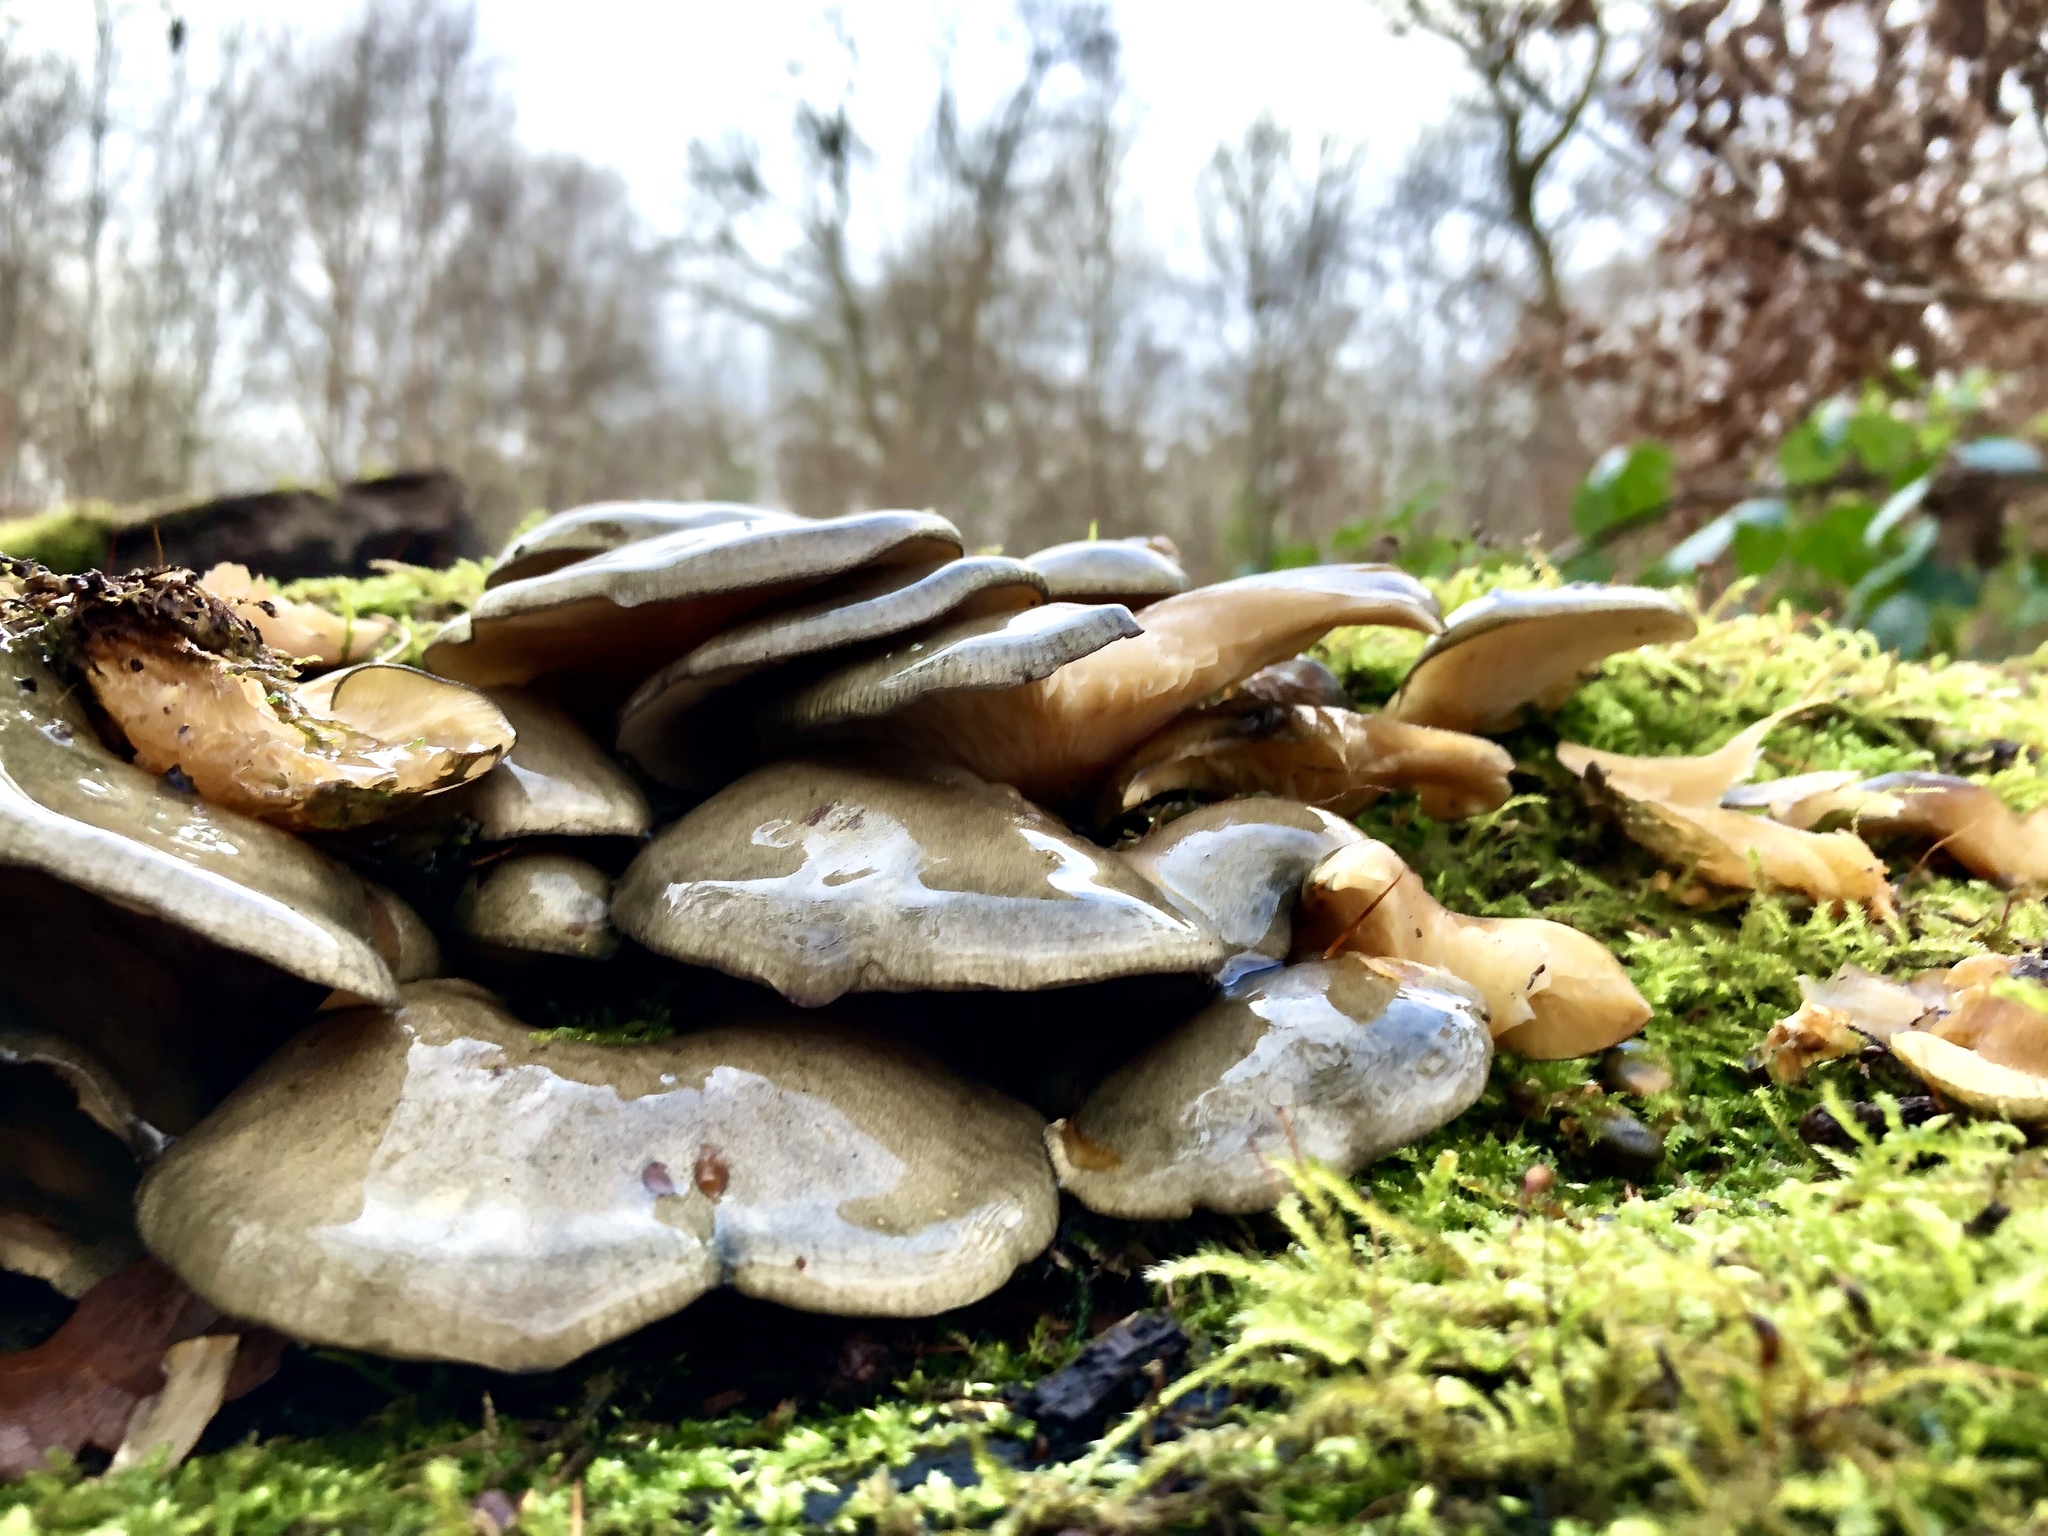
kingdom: Fungi
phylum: Basidiomycota
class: Agaricomycetes
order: Agaricales
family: Sarcomyxaceae
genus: Sarcomyxa
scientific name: Sarcomyxa serotina
